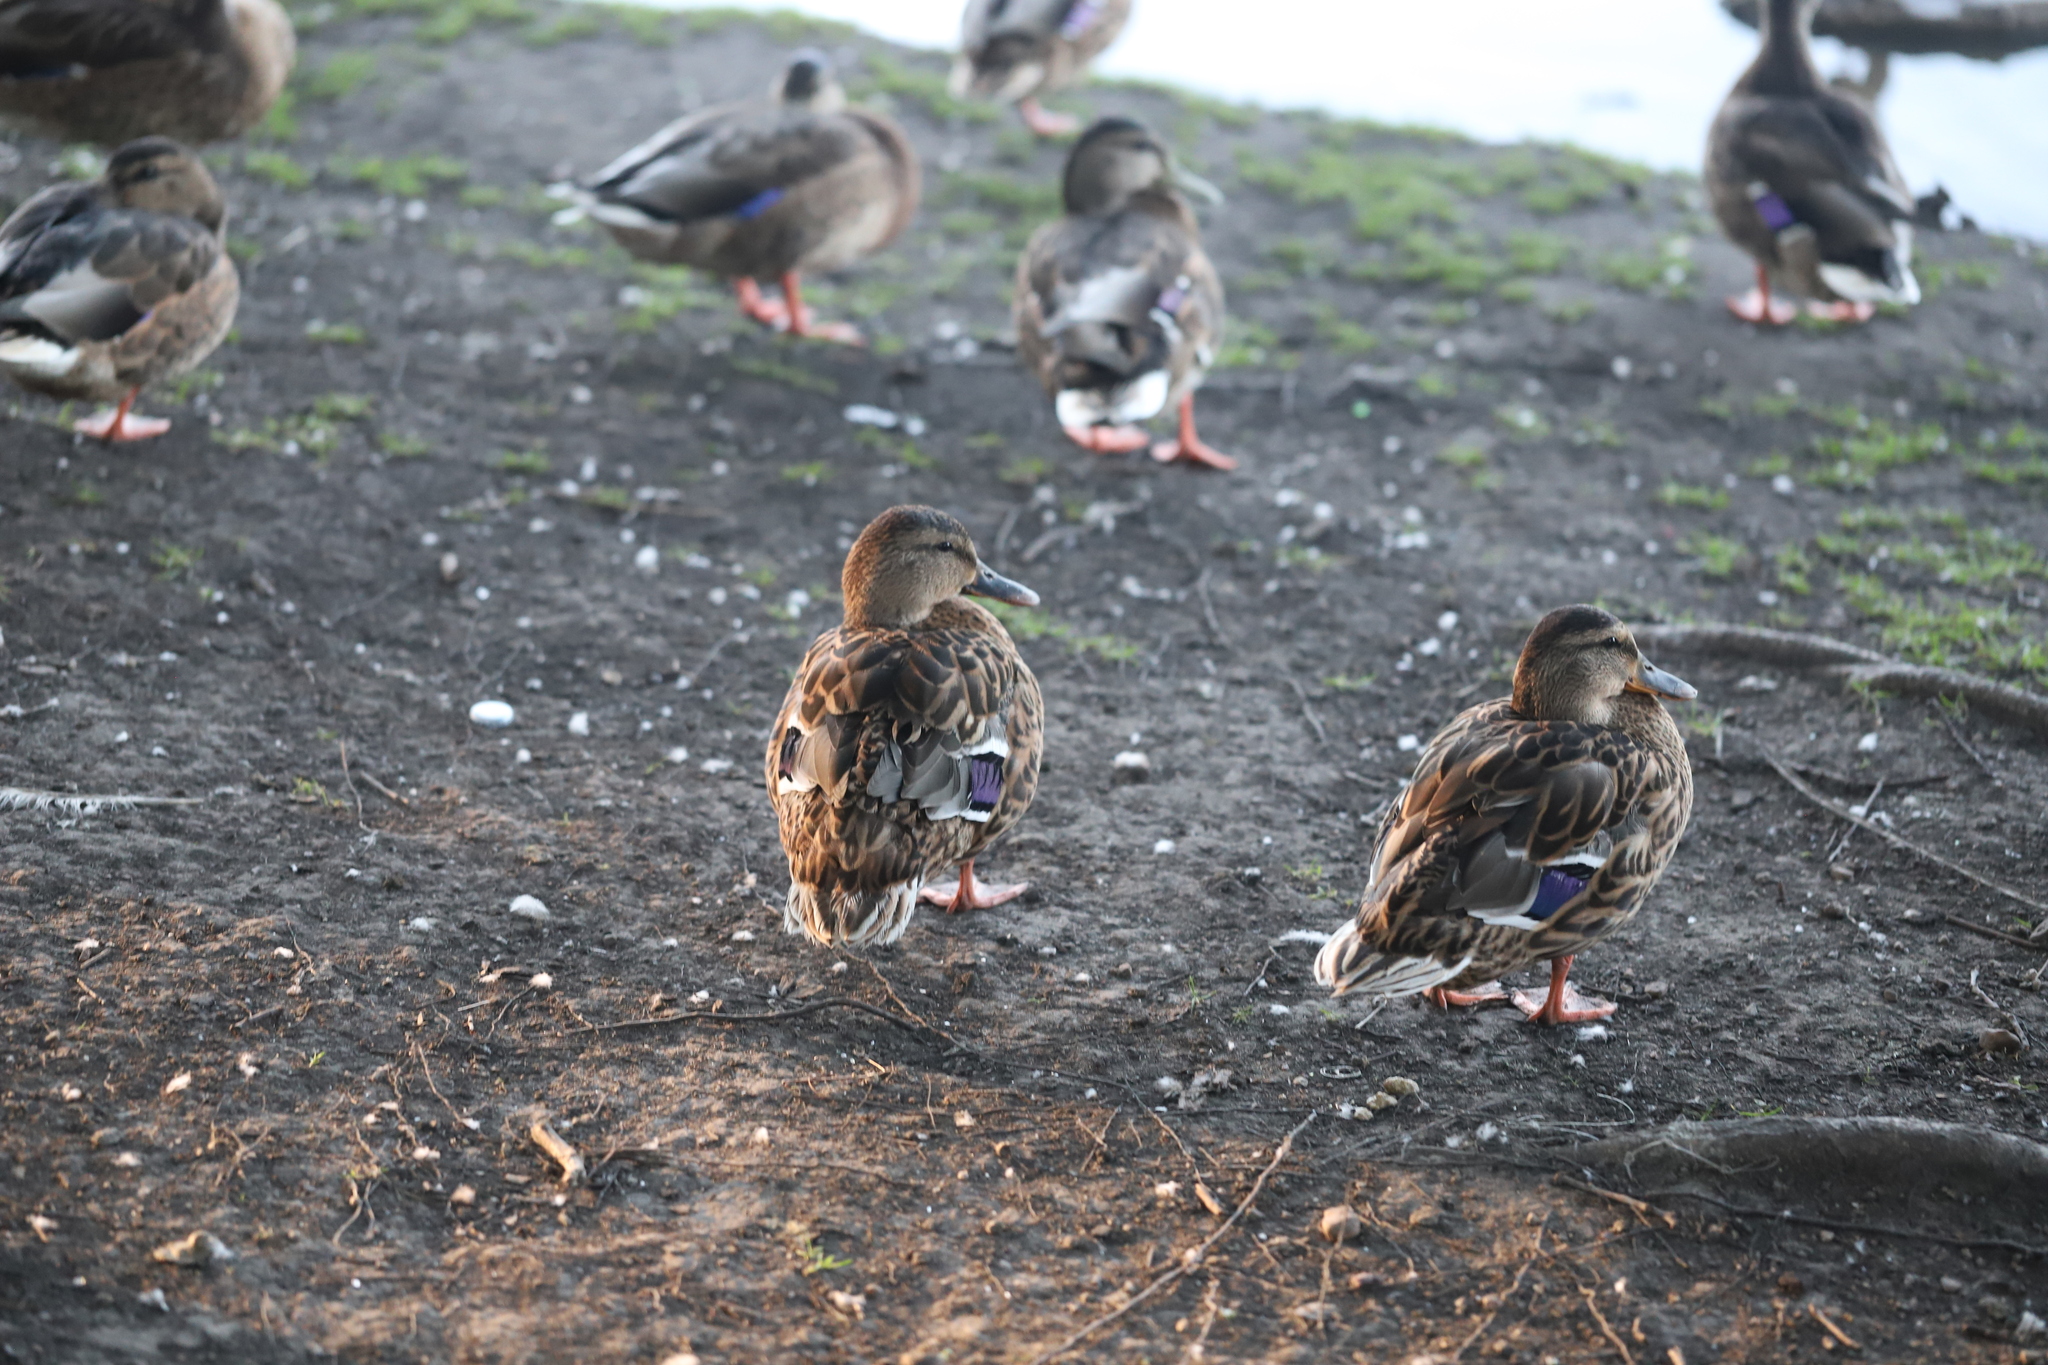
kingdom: Animalia
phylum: Chordata
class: Aves
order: Anseriformes
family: Anatidae
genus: Anas
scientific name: Anas platyrhynchos
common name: Mallard
